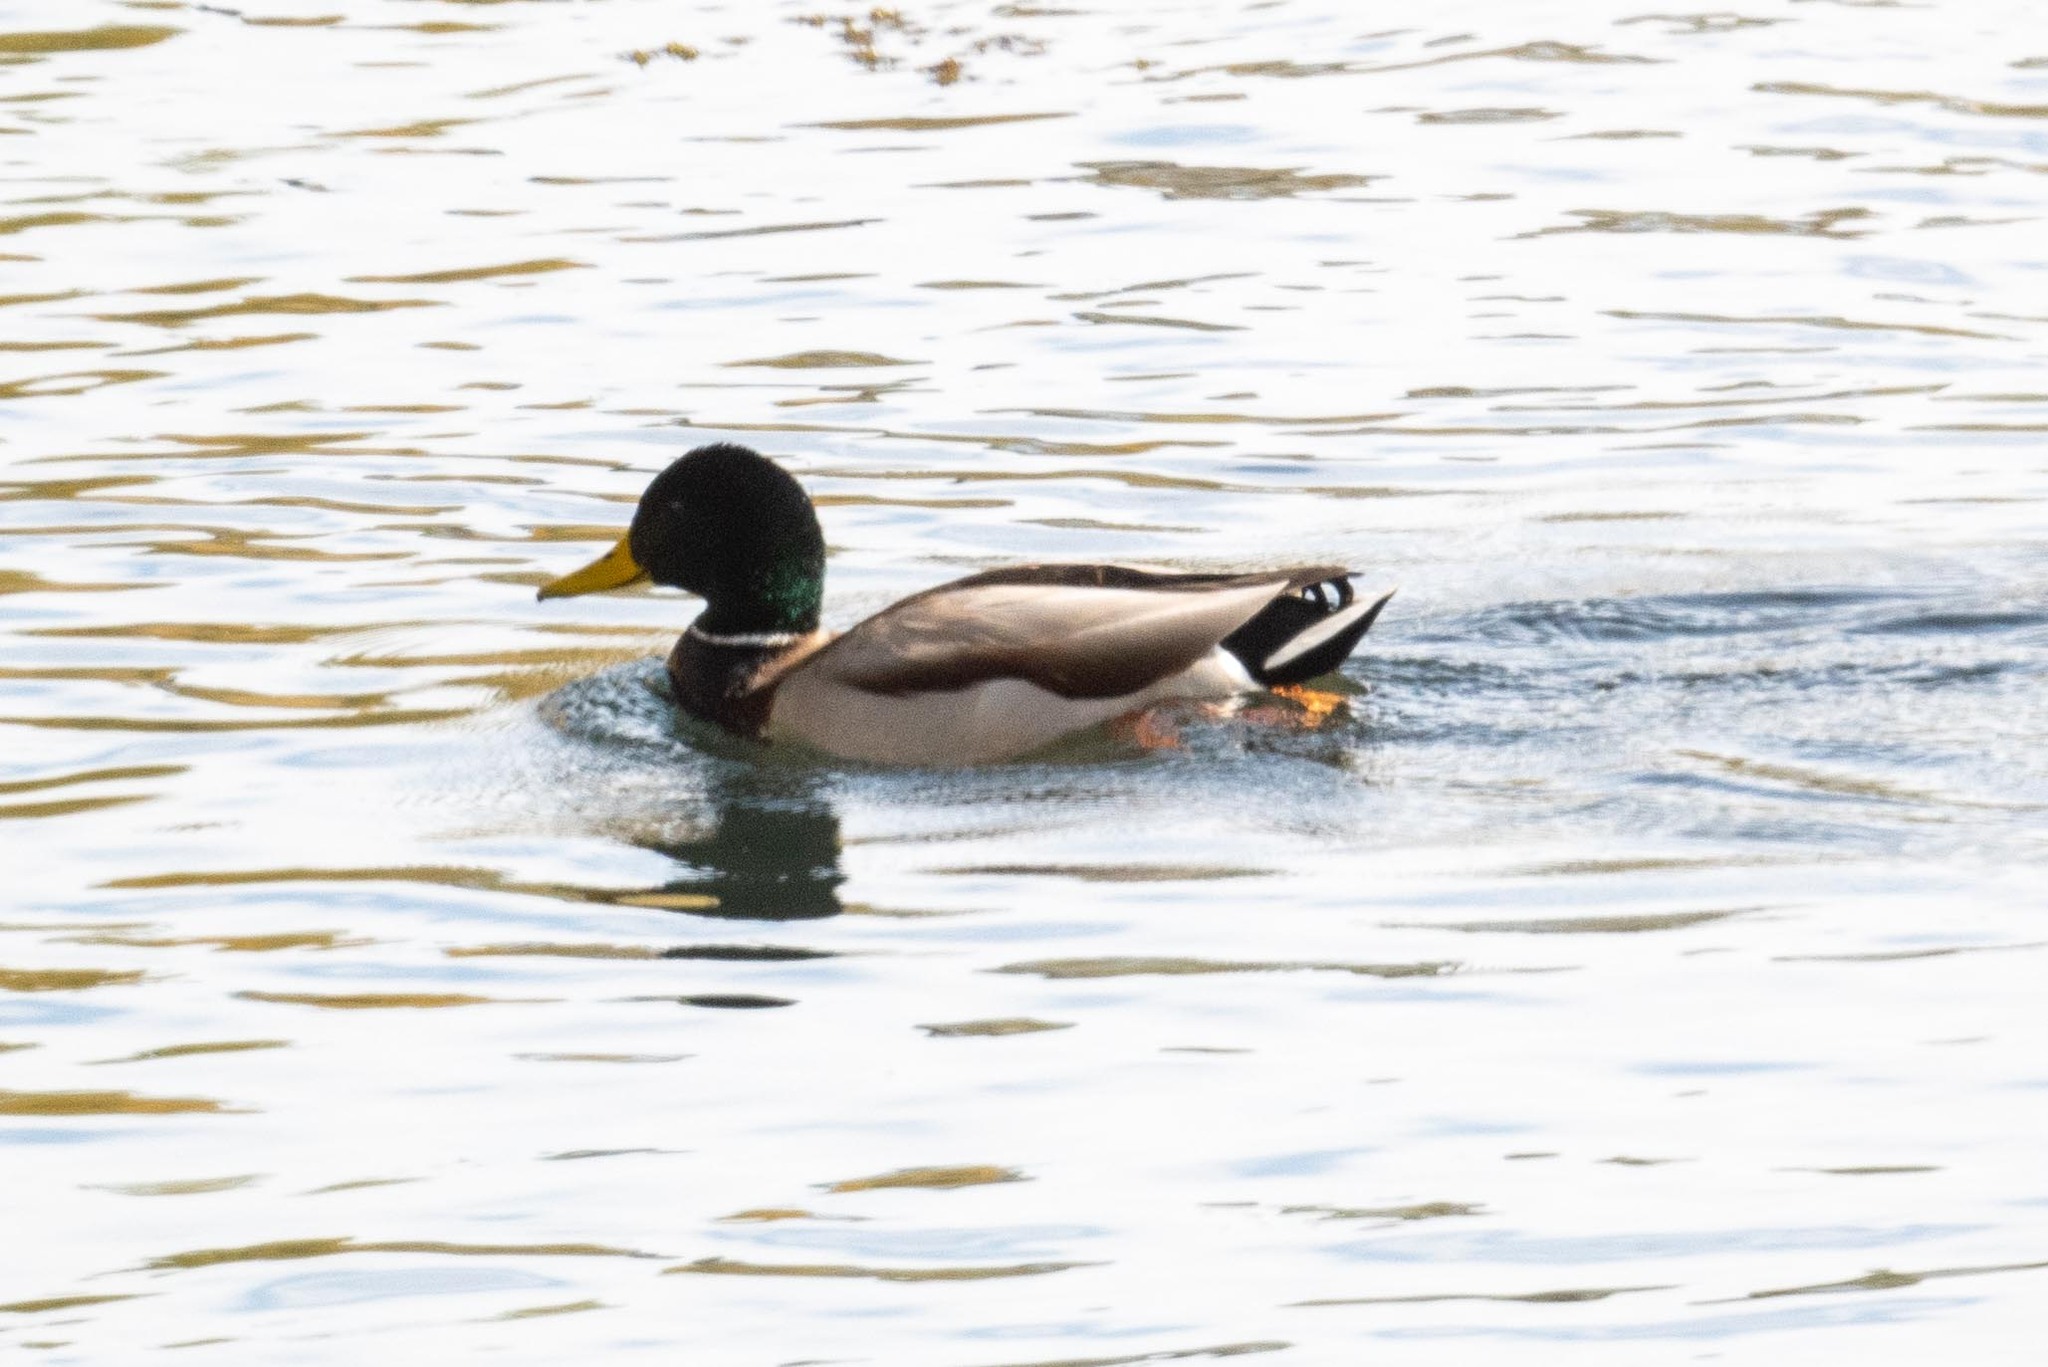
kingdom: Animalia
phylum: Chordata
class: Aves
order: Anseriformes
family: Anatidae
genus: Anas
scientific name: Anas platyrhynchos
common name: Mallard
